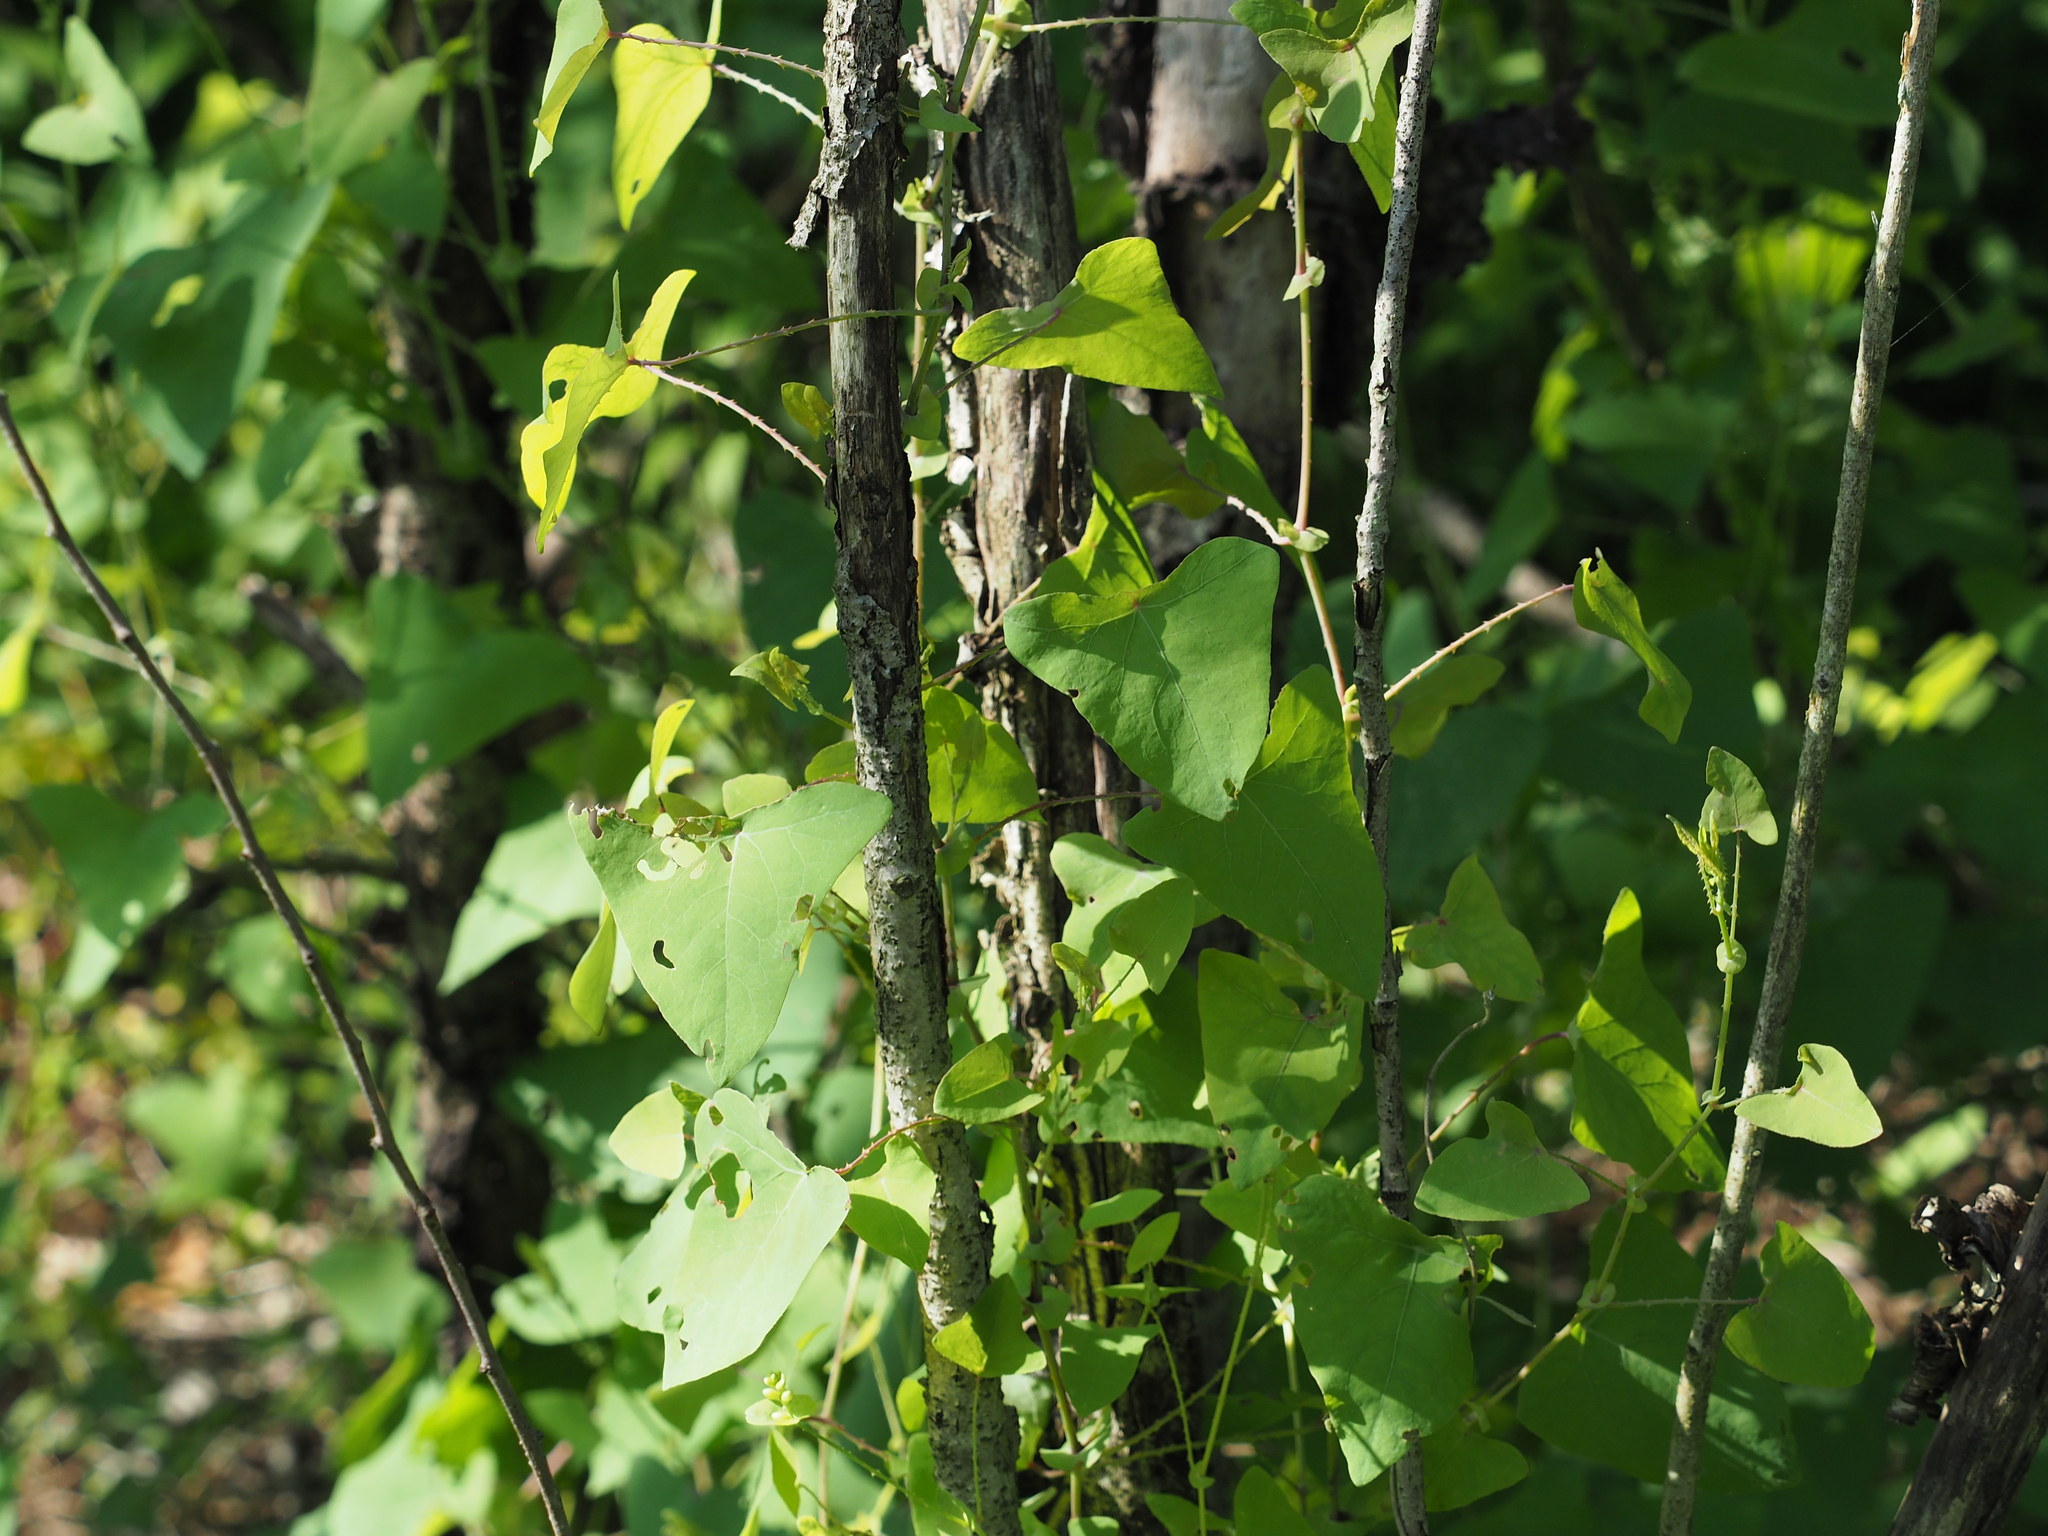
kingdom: Plantae
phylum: Tracheophyta
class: Magnoliopsida
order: Caryophyllales
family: Polygonaceae
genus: Persicaria
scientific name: Persicaria perfoliata
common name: Asiatic tearthumb
